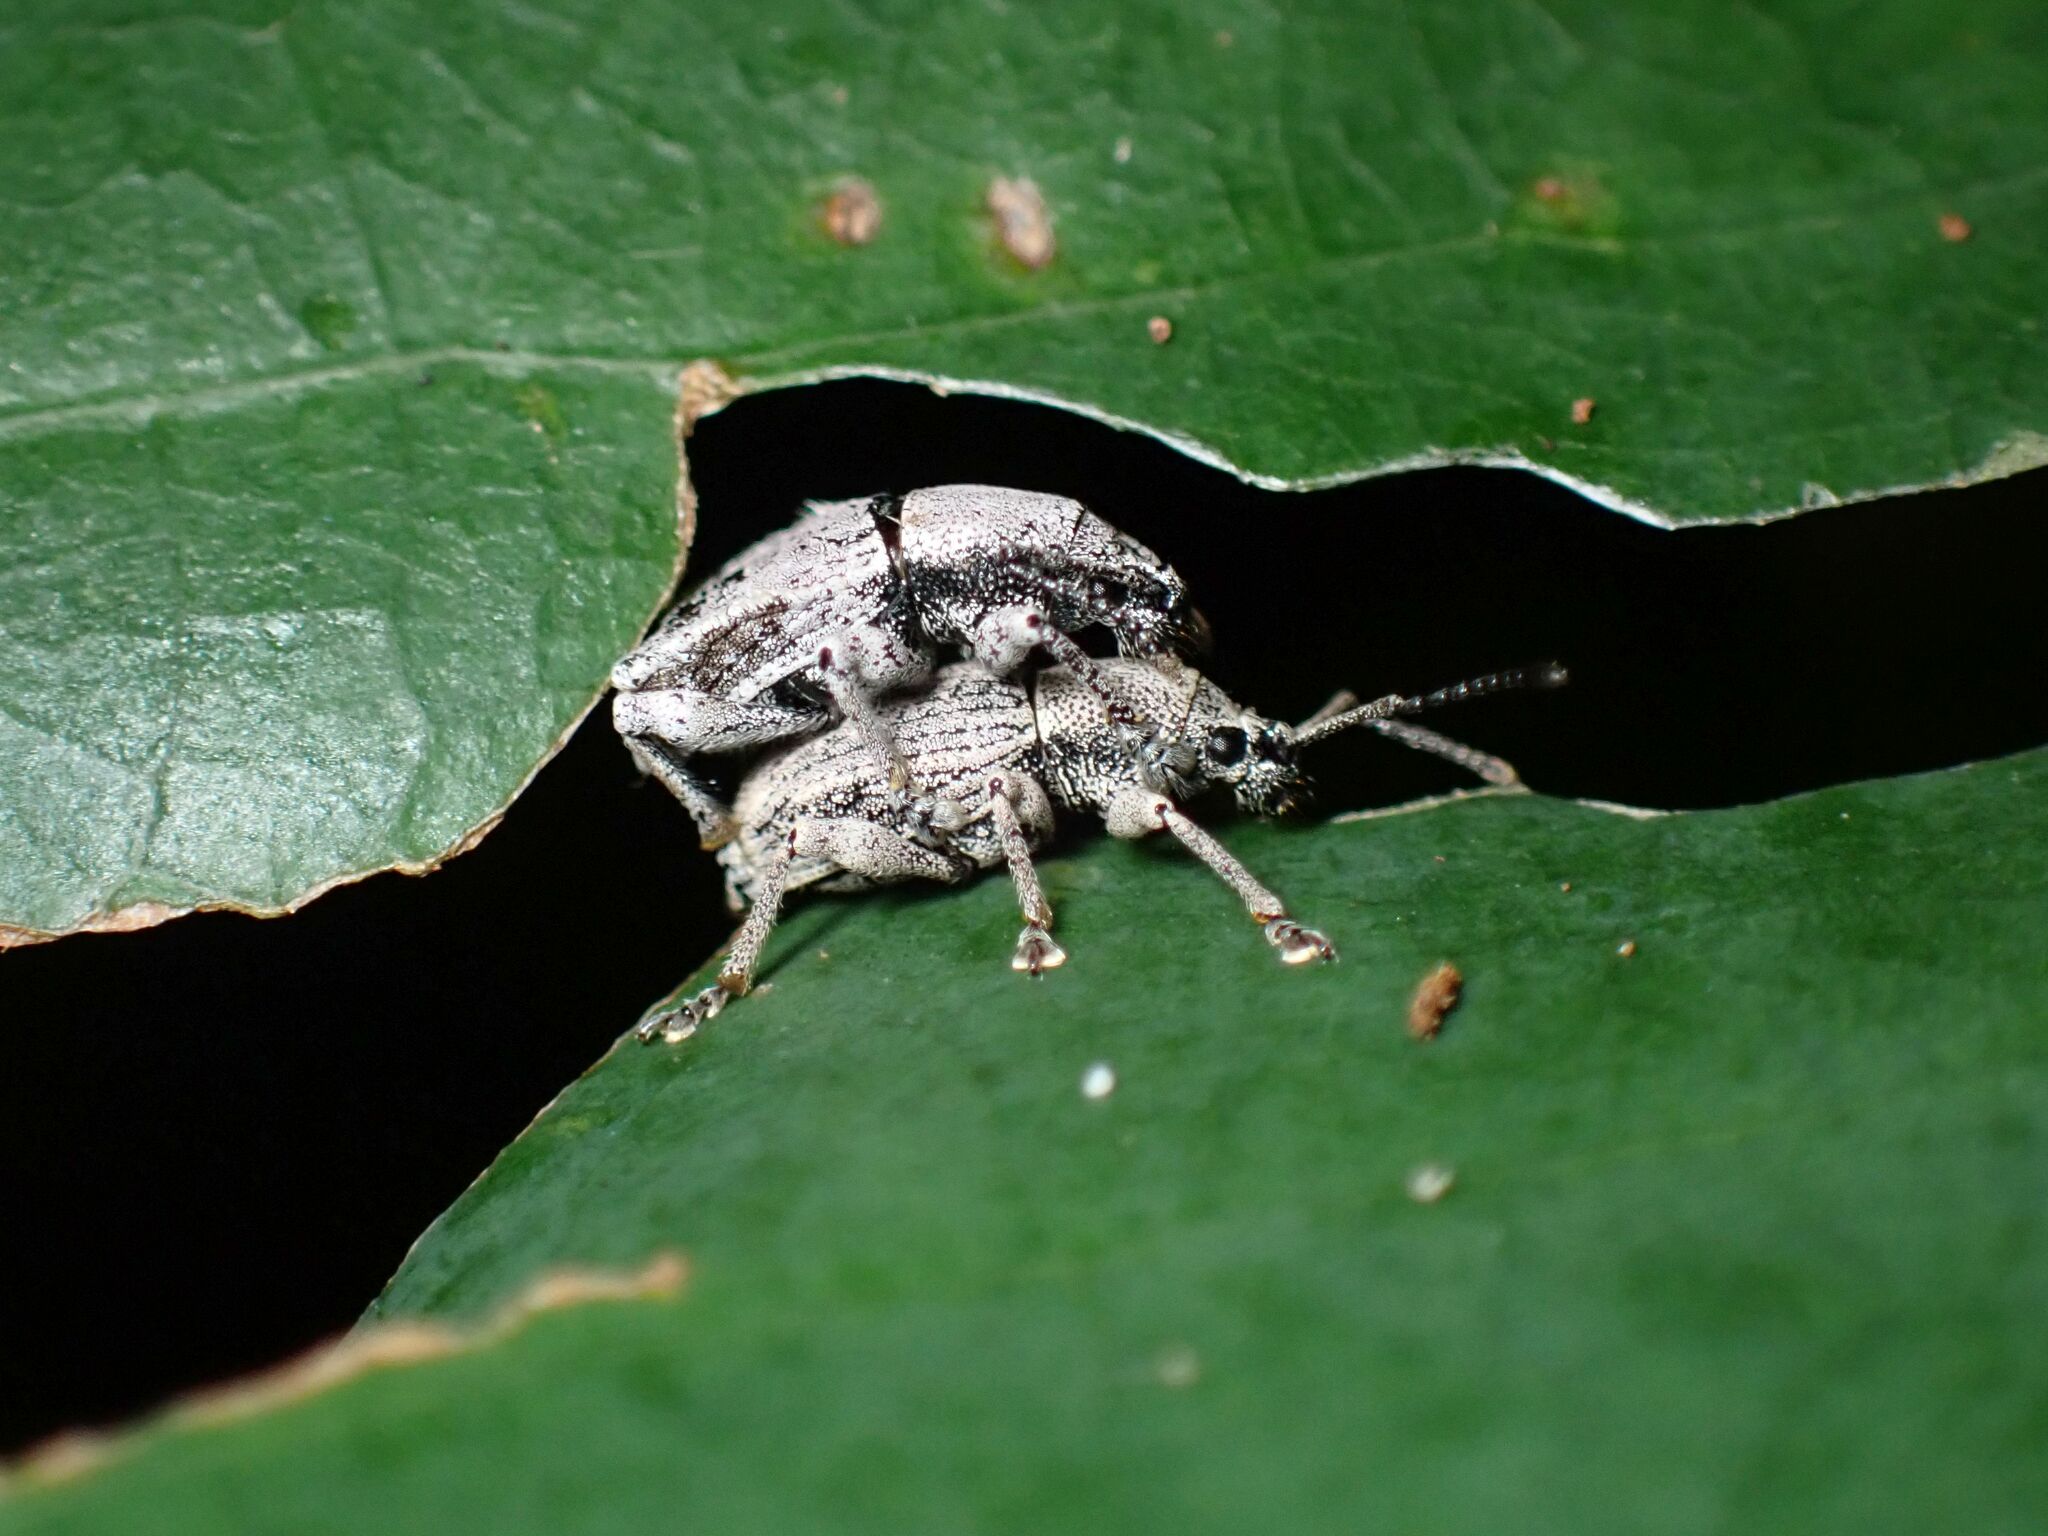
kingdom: Animalia
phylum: Arthropoda
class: Insecta
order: Coleoptera
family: Curculionidae
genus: Platysimus
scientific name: Platysimus septentrionalis
